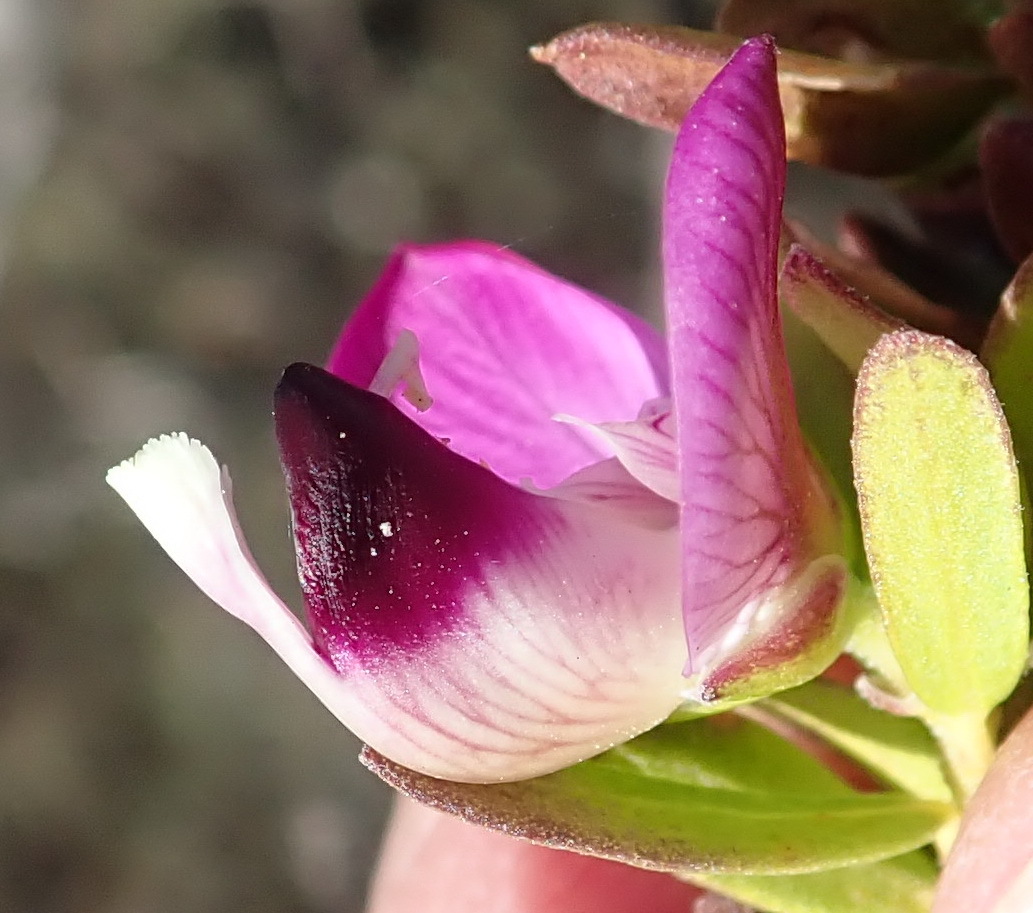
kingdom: Plantae
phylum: Tracheophyta
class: Magnoliopsida
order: Fabales
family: Polygalaceae
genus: Polygala
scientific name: Polygala myrtifolia
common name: Myrtle-leaf milkwort
